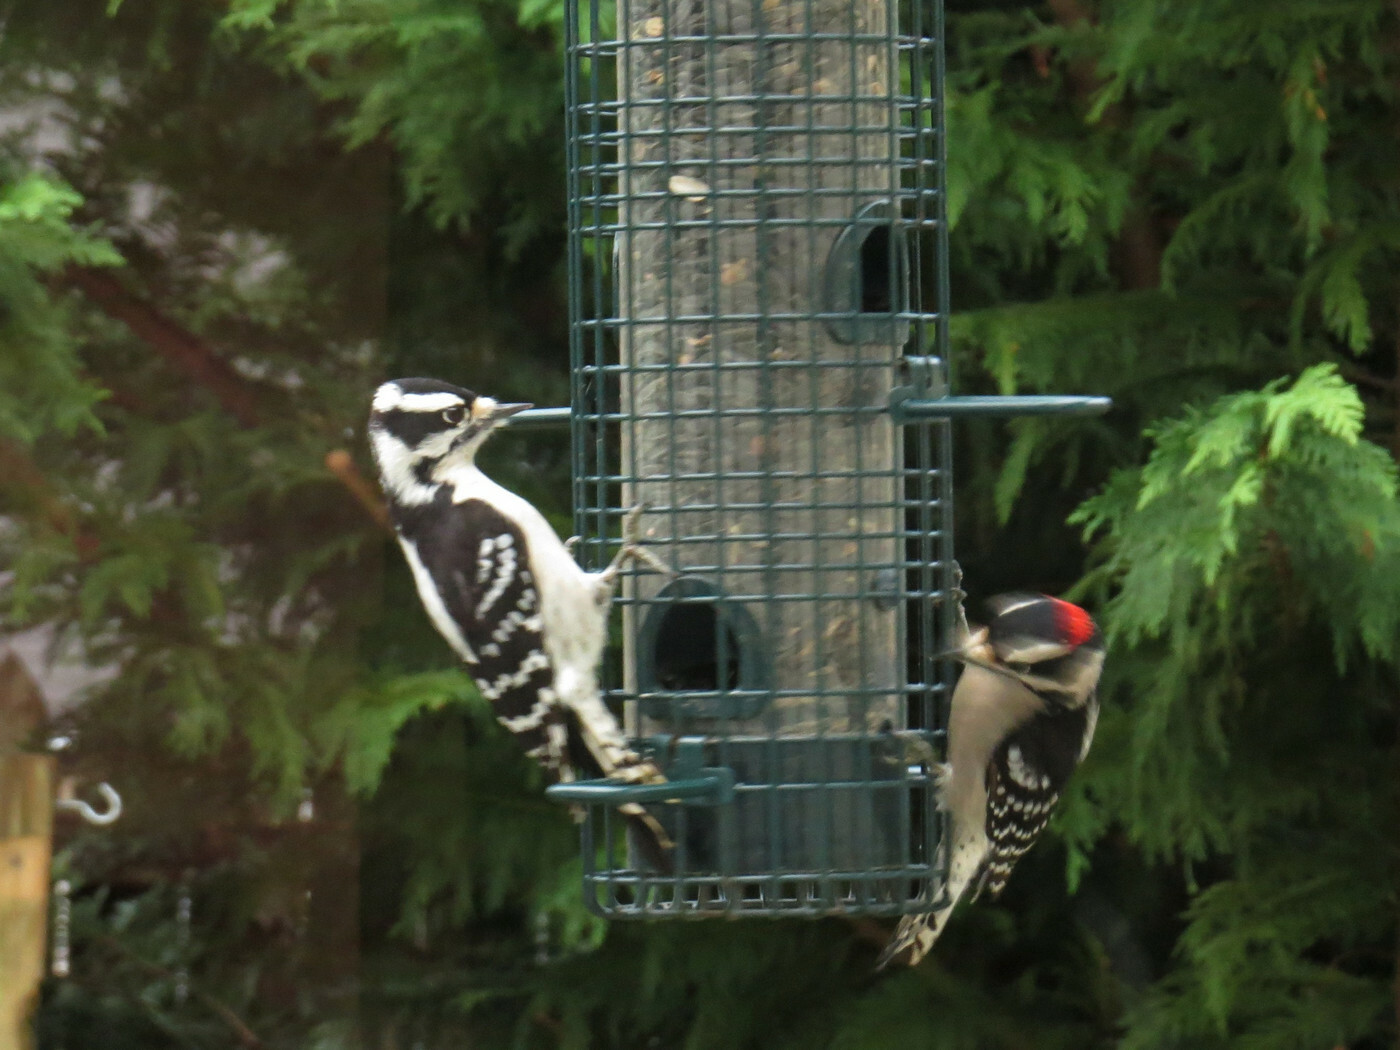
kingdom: Animalia
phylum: Chordata
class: Aves
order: Piciformes
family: Picidae
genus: Dryobates
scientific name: Dryobates pubescens
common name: Downy woodpecker
